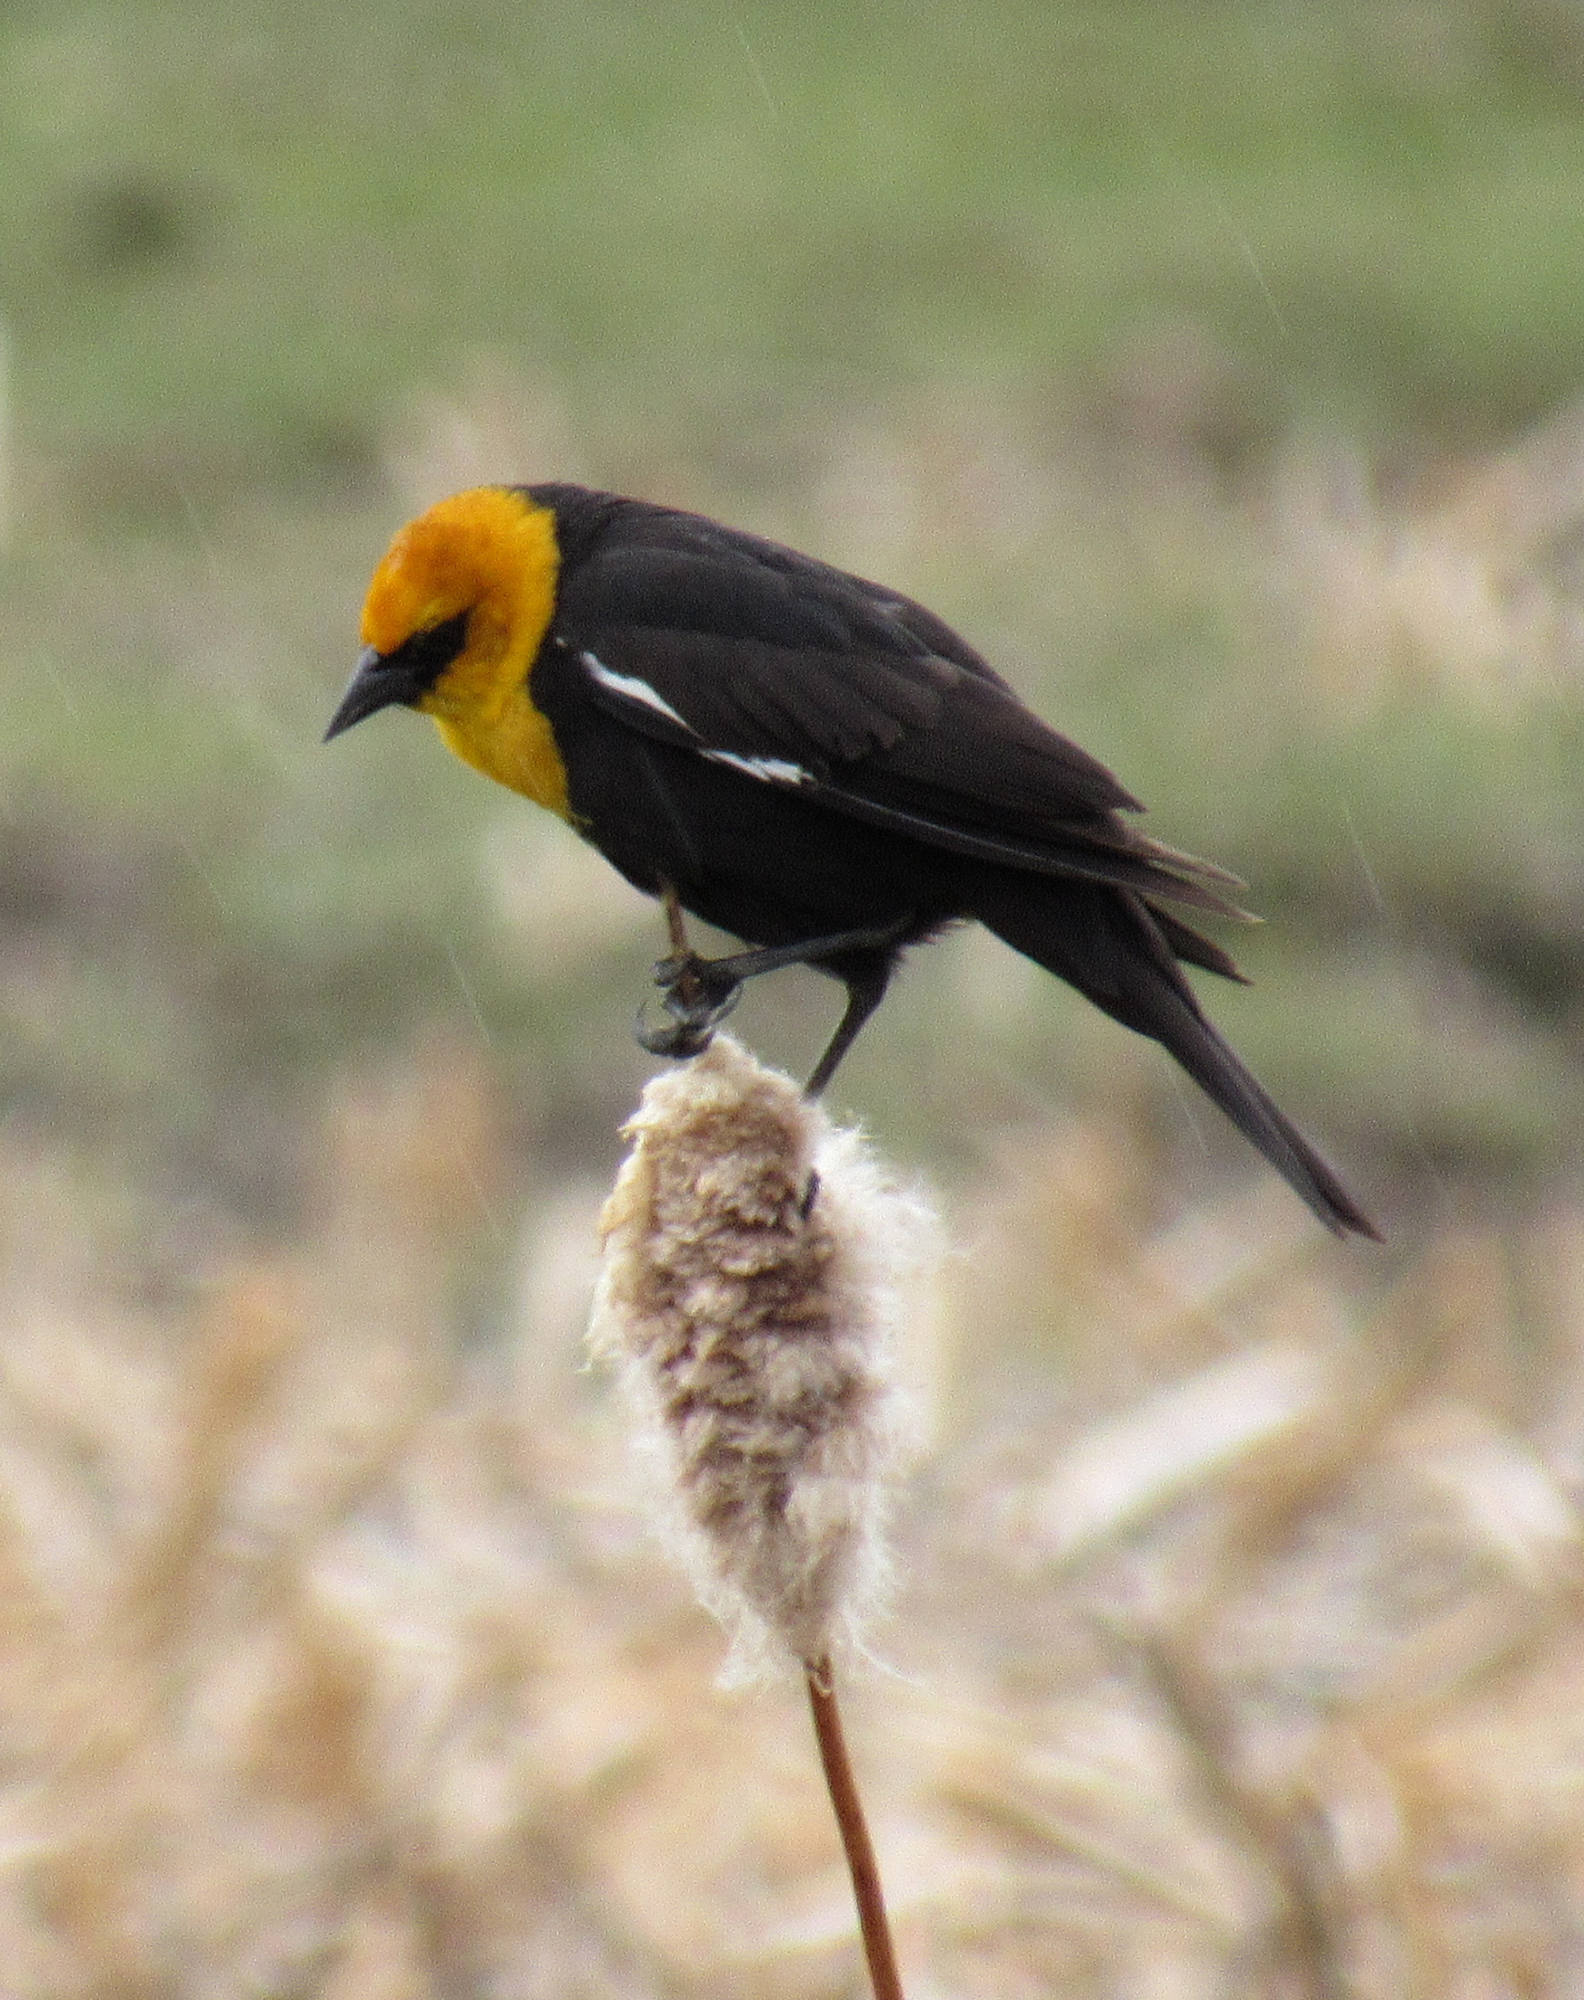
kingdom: Animalia
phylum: Chordata
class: Aves
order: Passeriformes
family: Icteridae
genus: Xanthocephalus
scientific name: Xanthocephalus xanthocephalus
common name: Yellow-headed blackbird
